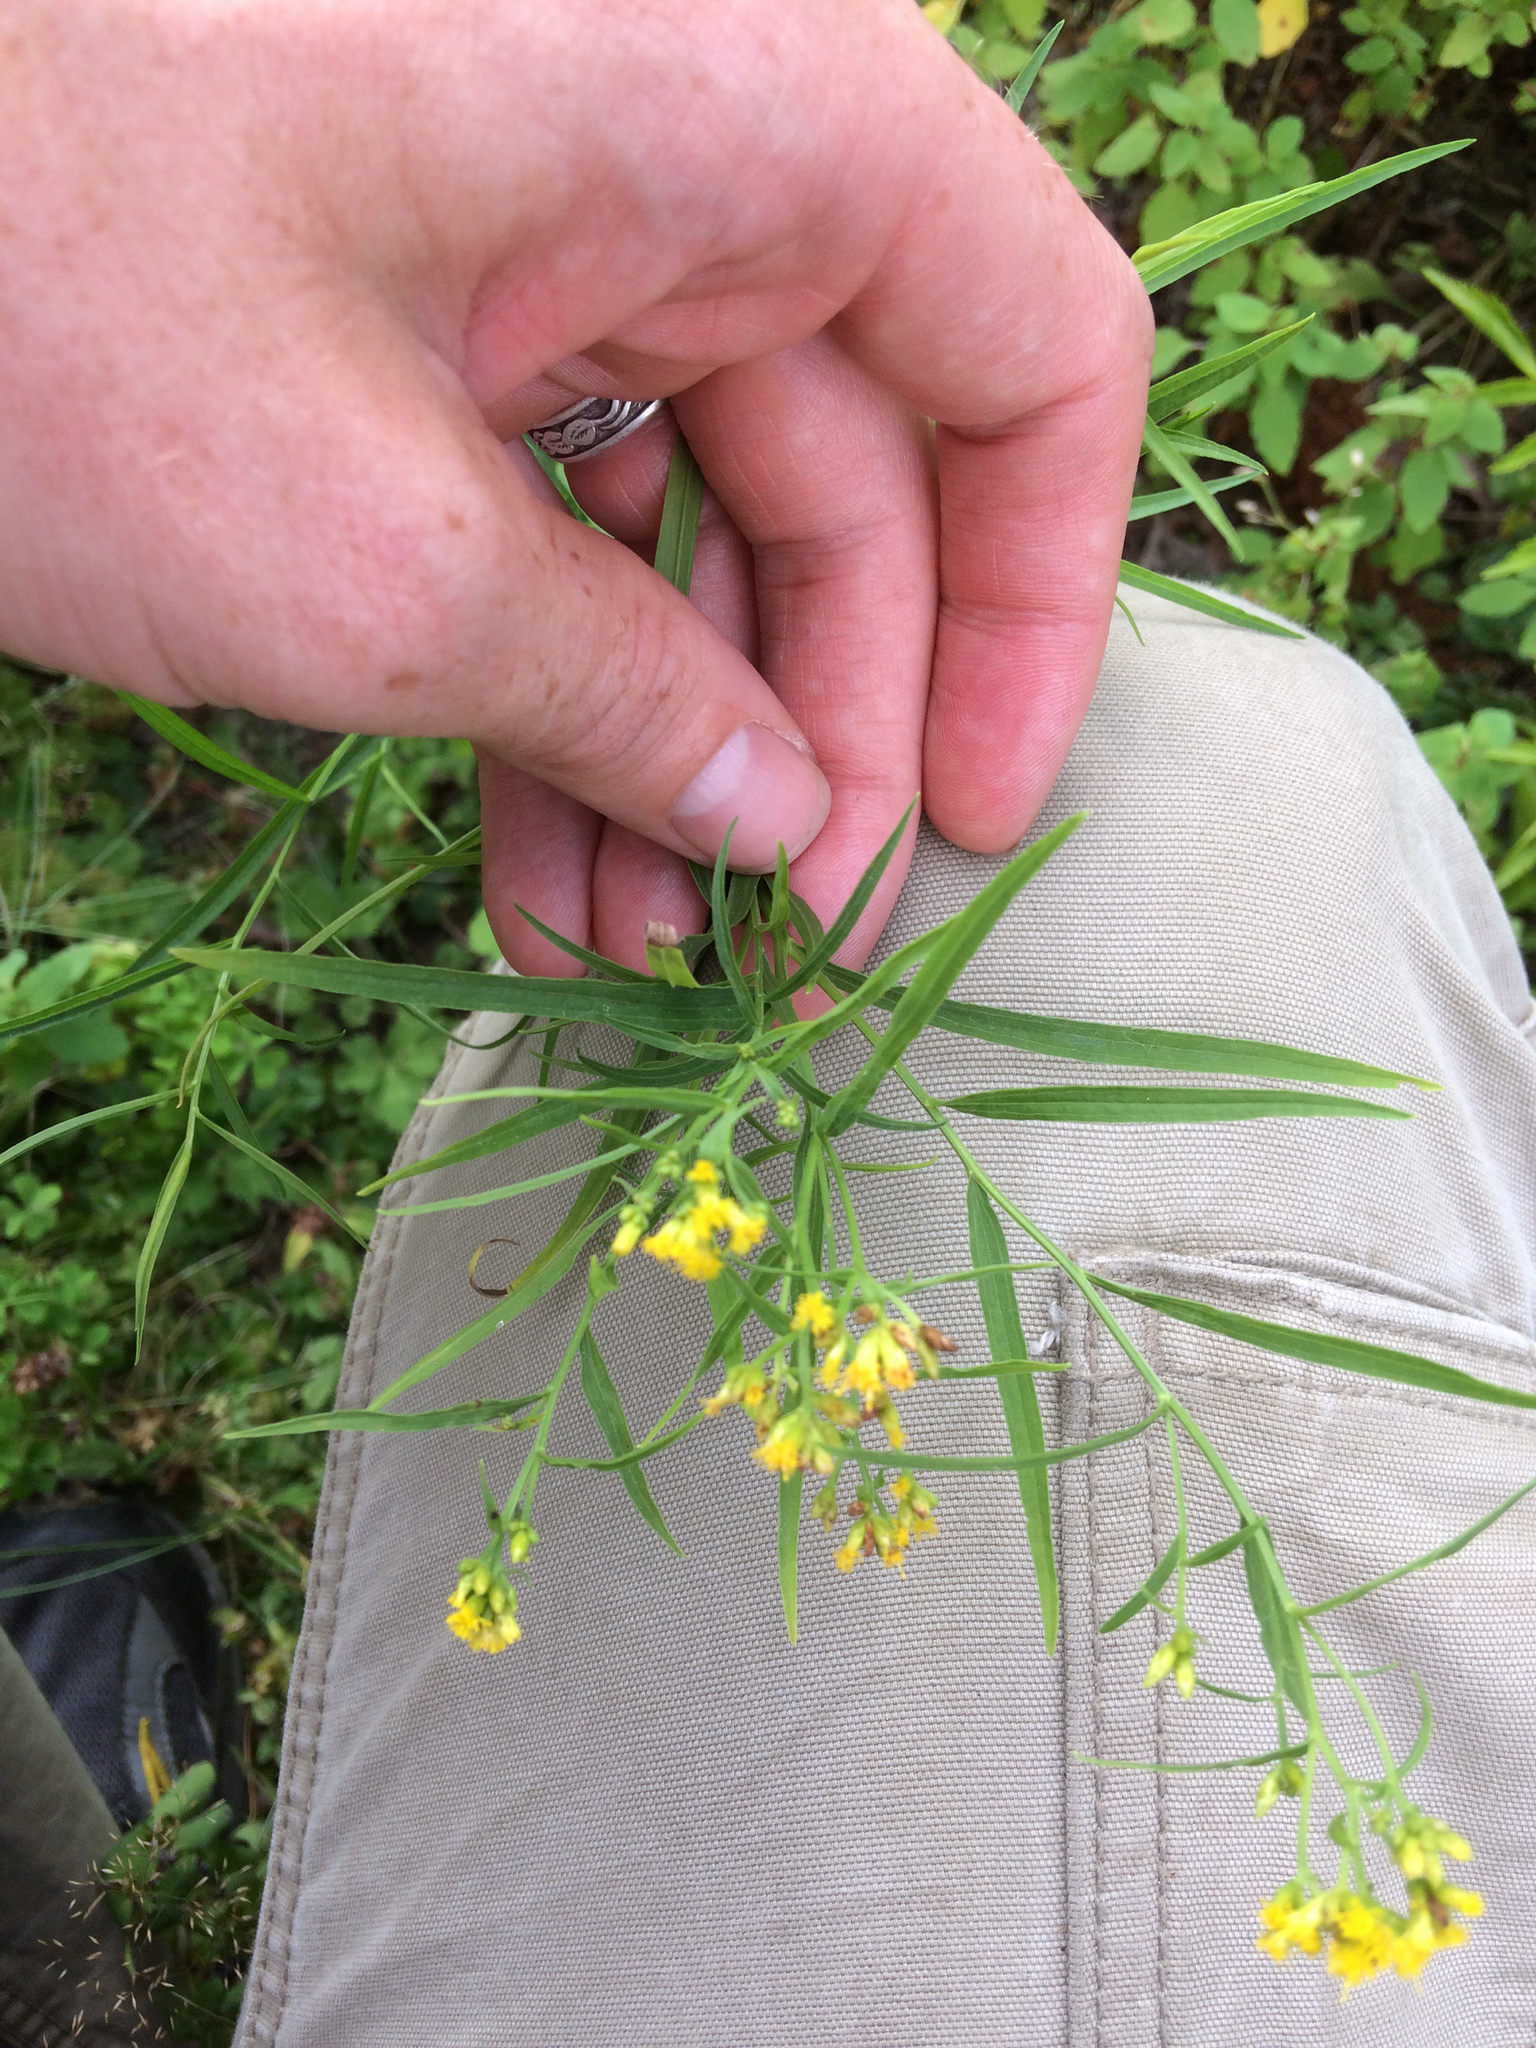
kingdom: Plantae
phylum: Tracheophyta
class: Magnoliopsida
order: Asterales
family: Asteraceae
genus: Euthamia
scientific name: Euthamia graminifolia
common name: Common goldentop
